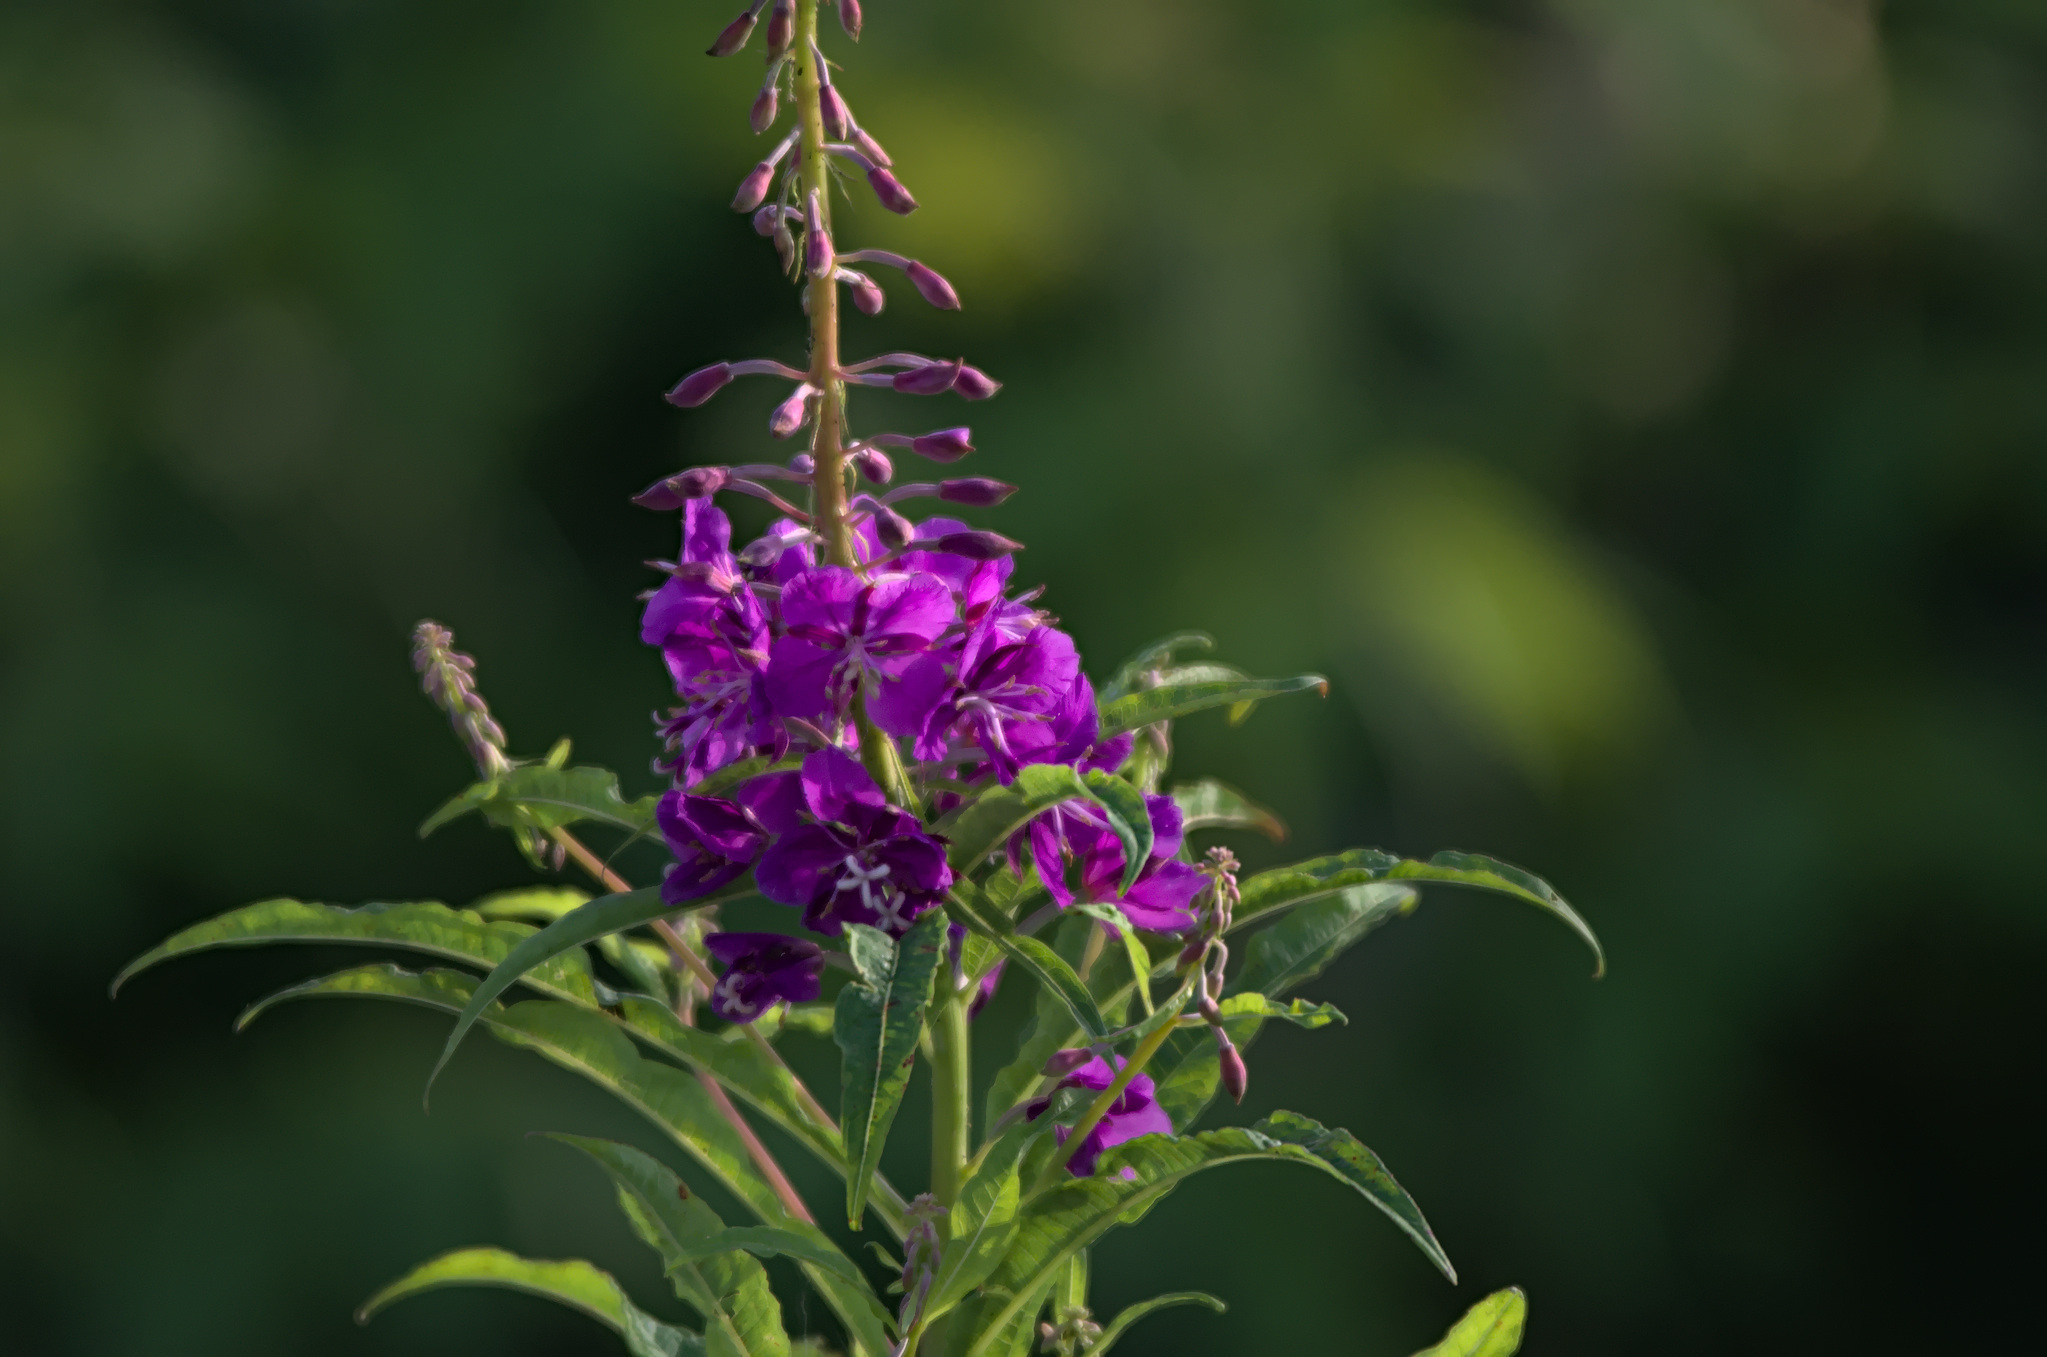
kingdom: Plantae
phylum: Tracheophyta
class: Magnoliopsida
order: Myrtales
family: Onagraceae
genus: Chamaenerion
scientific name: Chamaenerion angustifolium
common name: Fireweed
